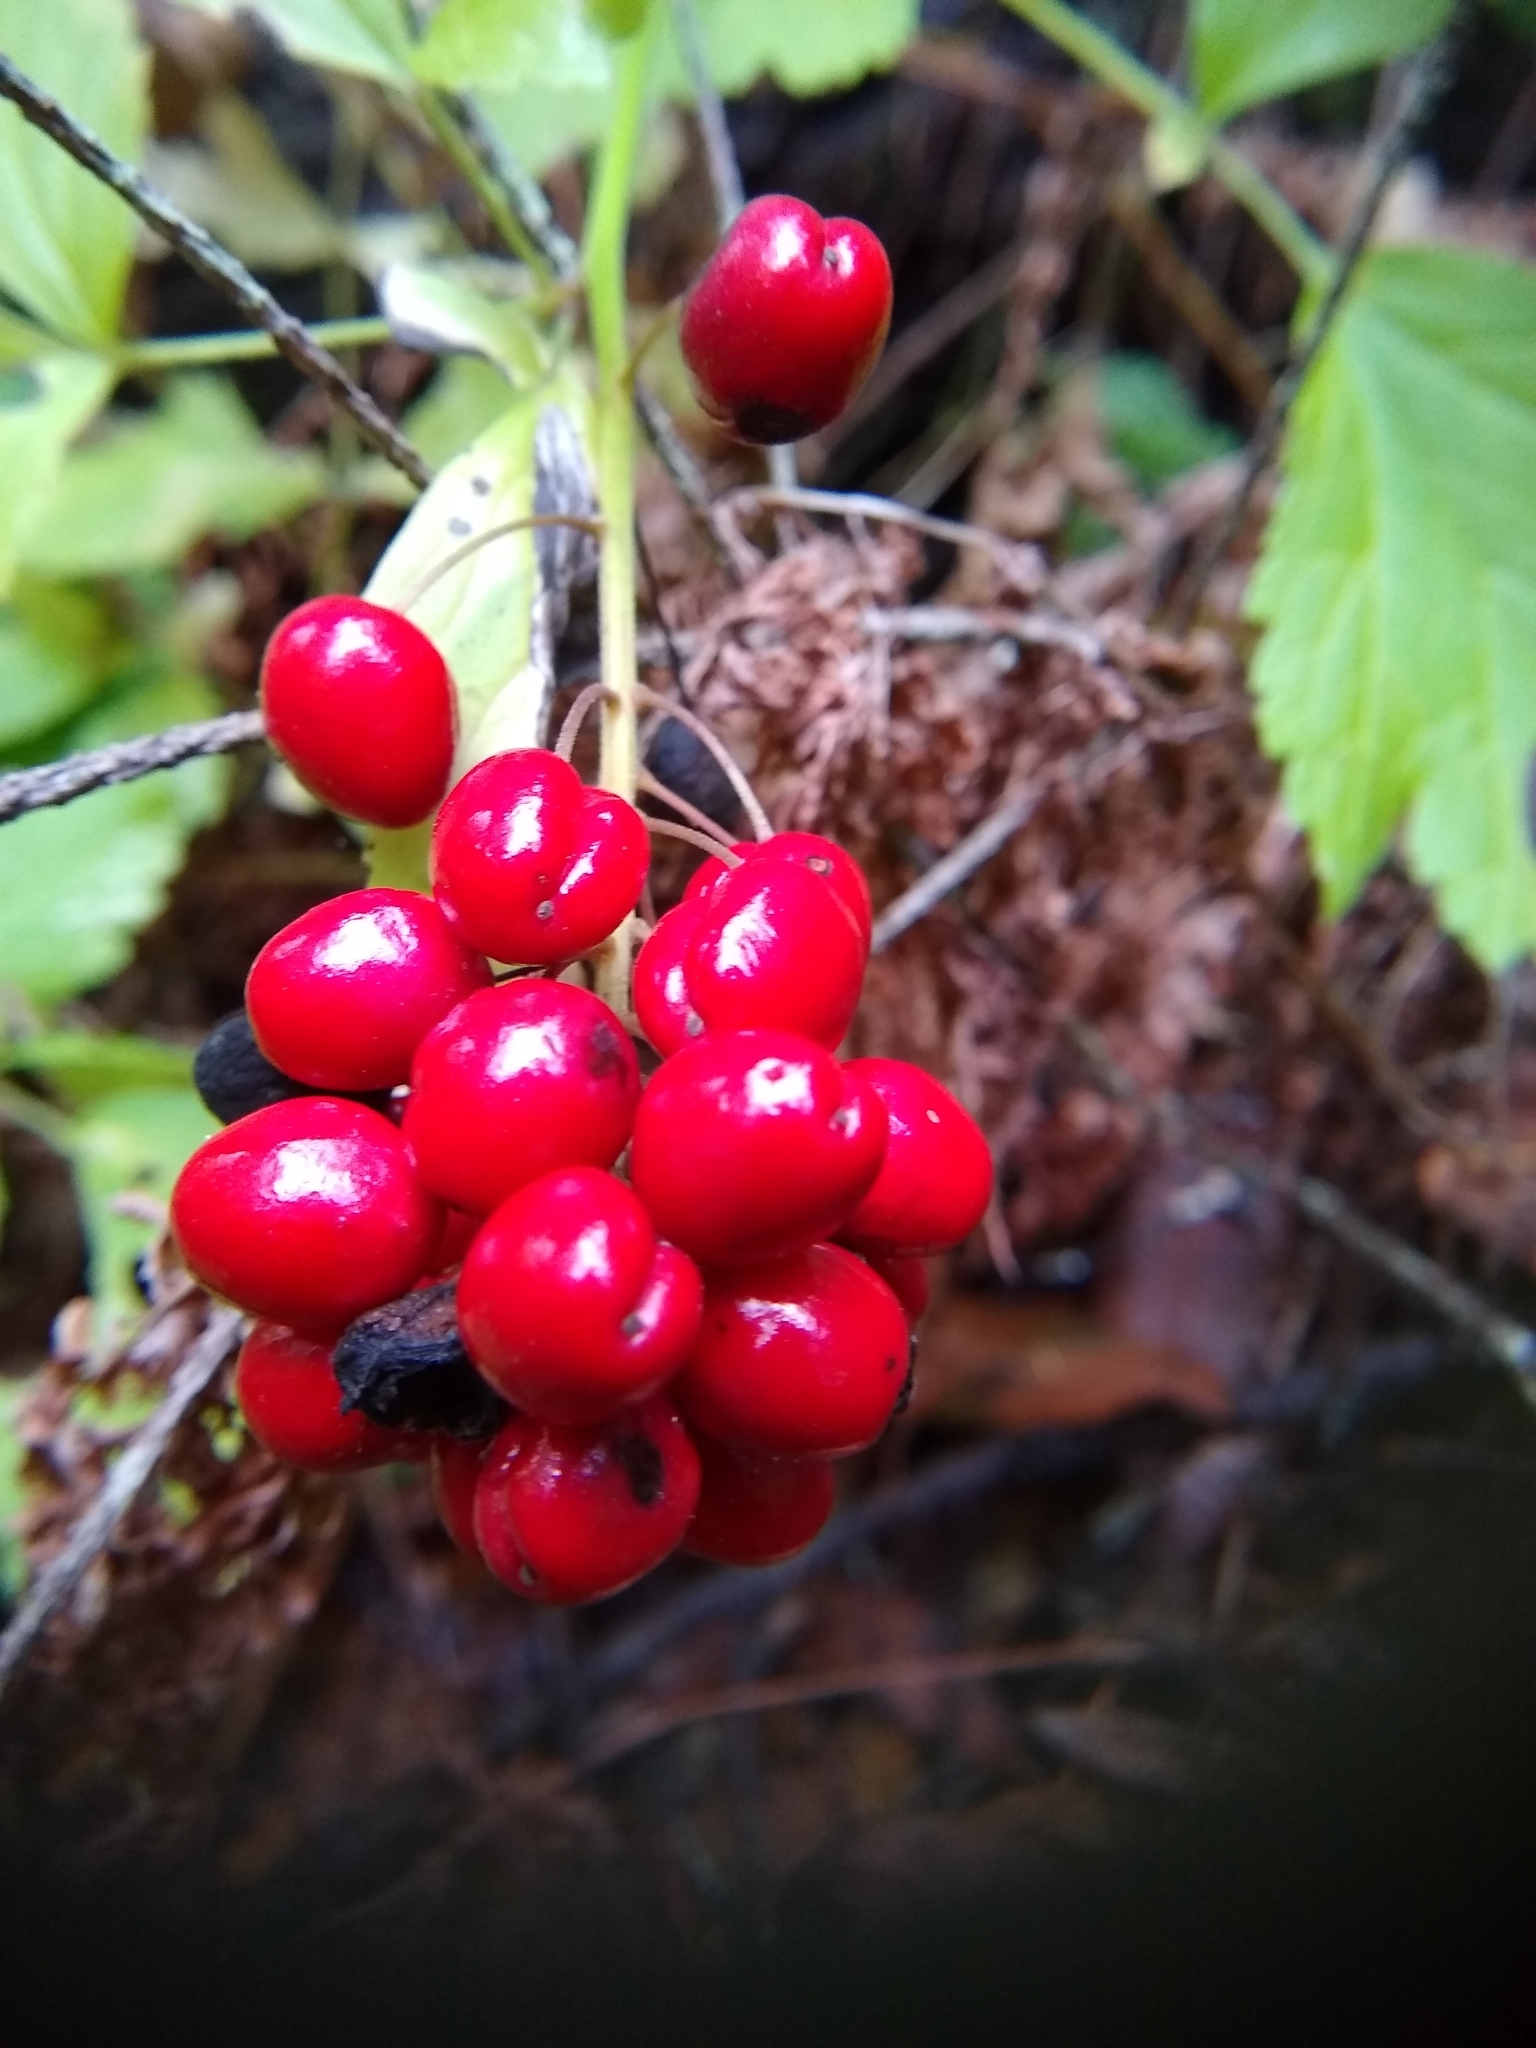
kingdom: Plantae
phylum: Tracheophyta
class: Magnoliopsida
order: Ranunculales
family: Ranunculaceae
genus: Actaea
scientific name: Actaea rubra
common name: Red baneberry
